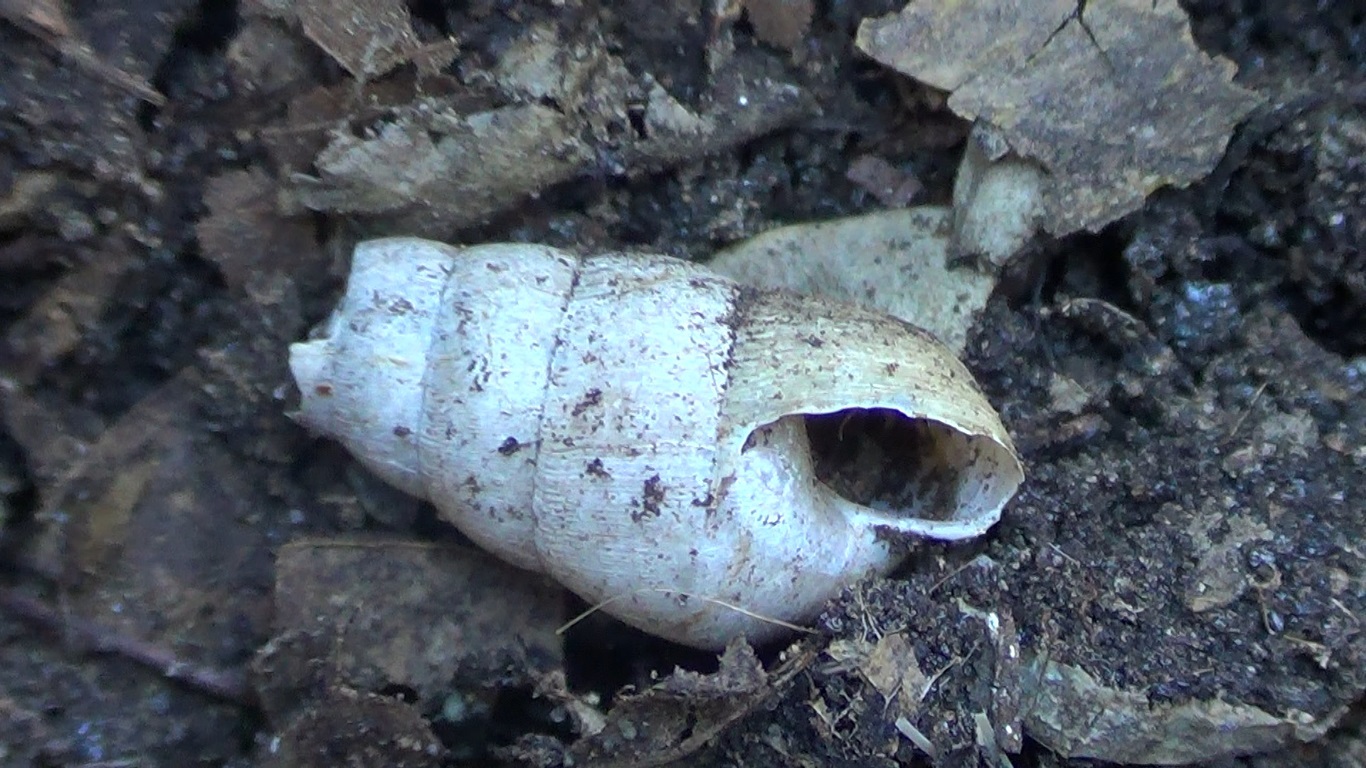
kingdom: Animalia
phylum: Mollusca
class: Gastropoda
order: Stylommatophora
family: Achatinidae
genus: Rumina
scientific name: Rumina decollata
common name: Decollate snail
